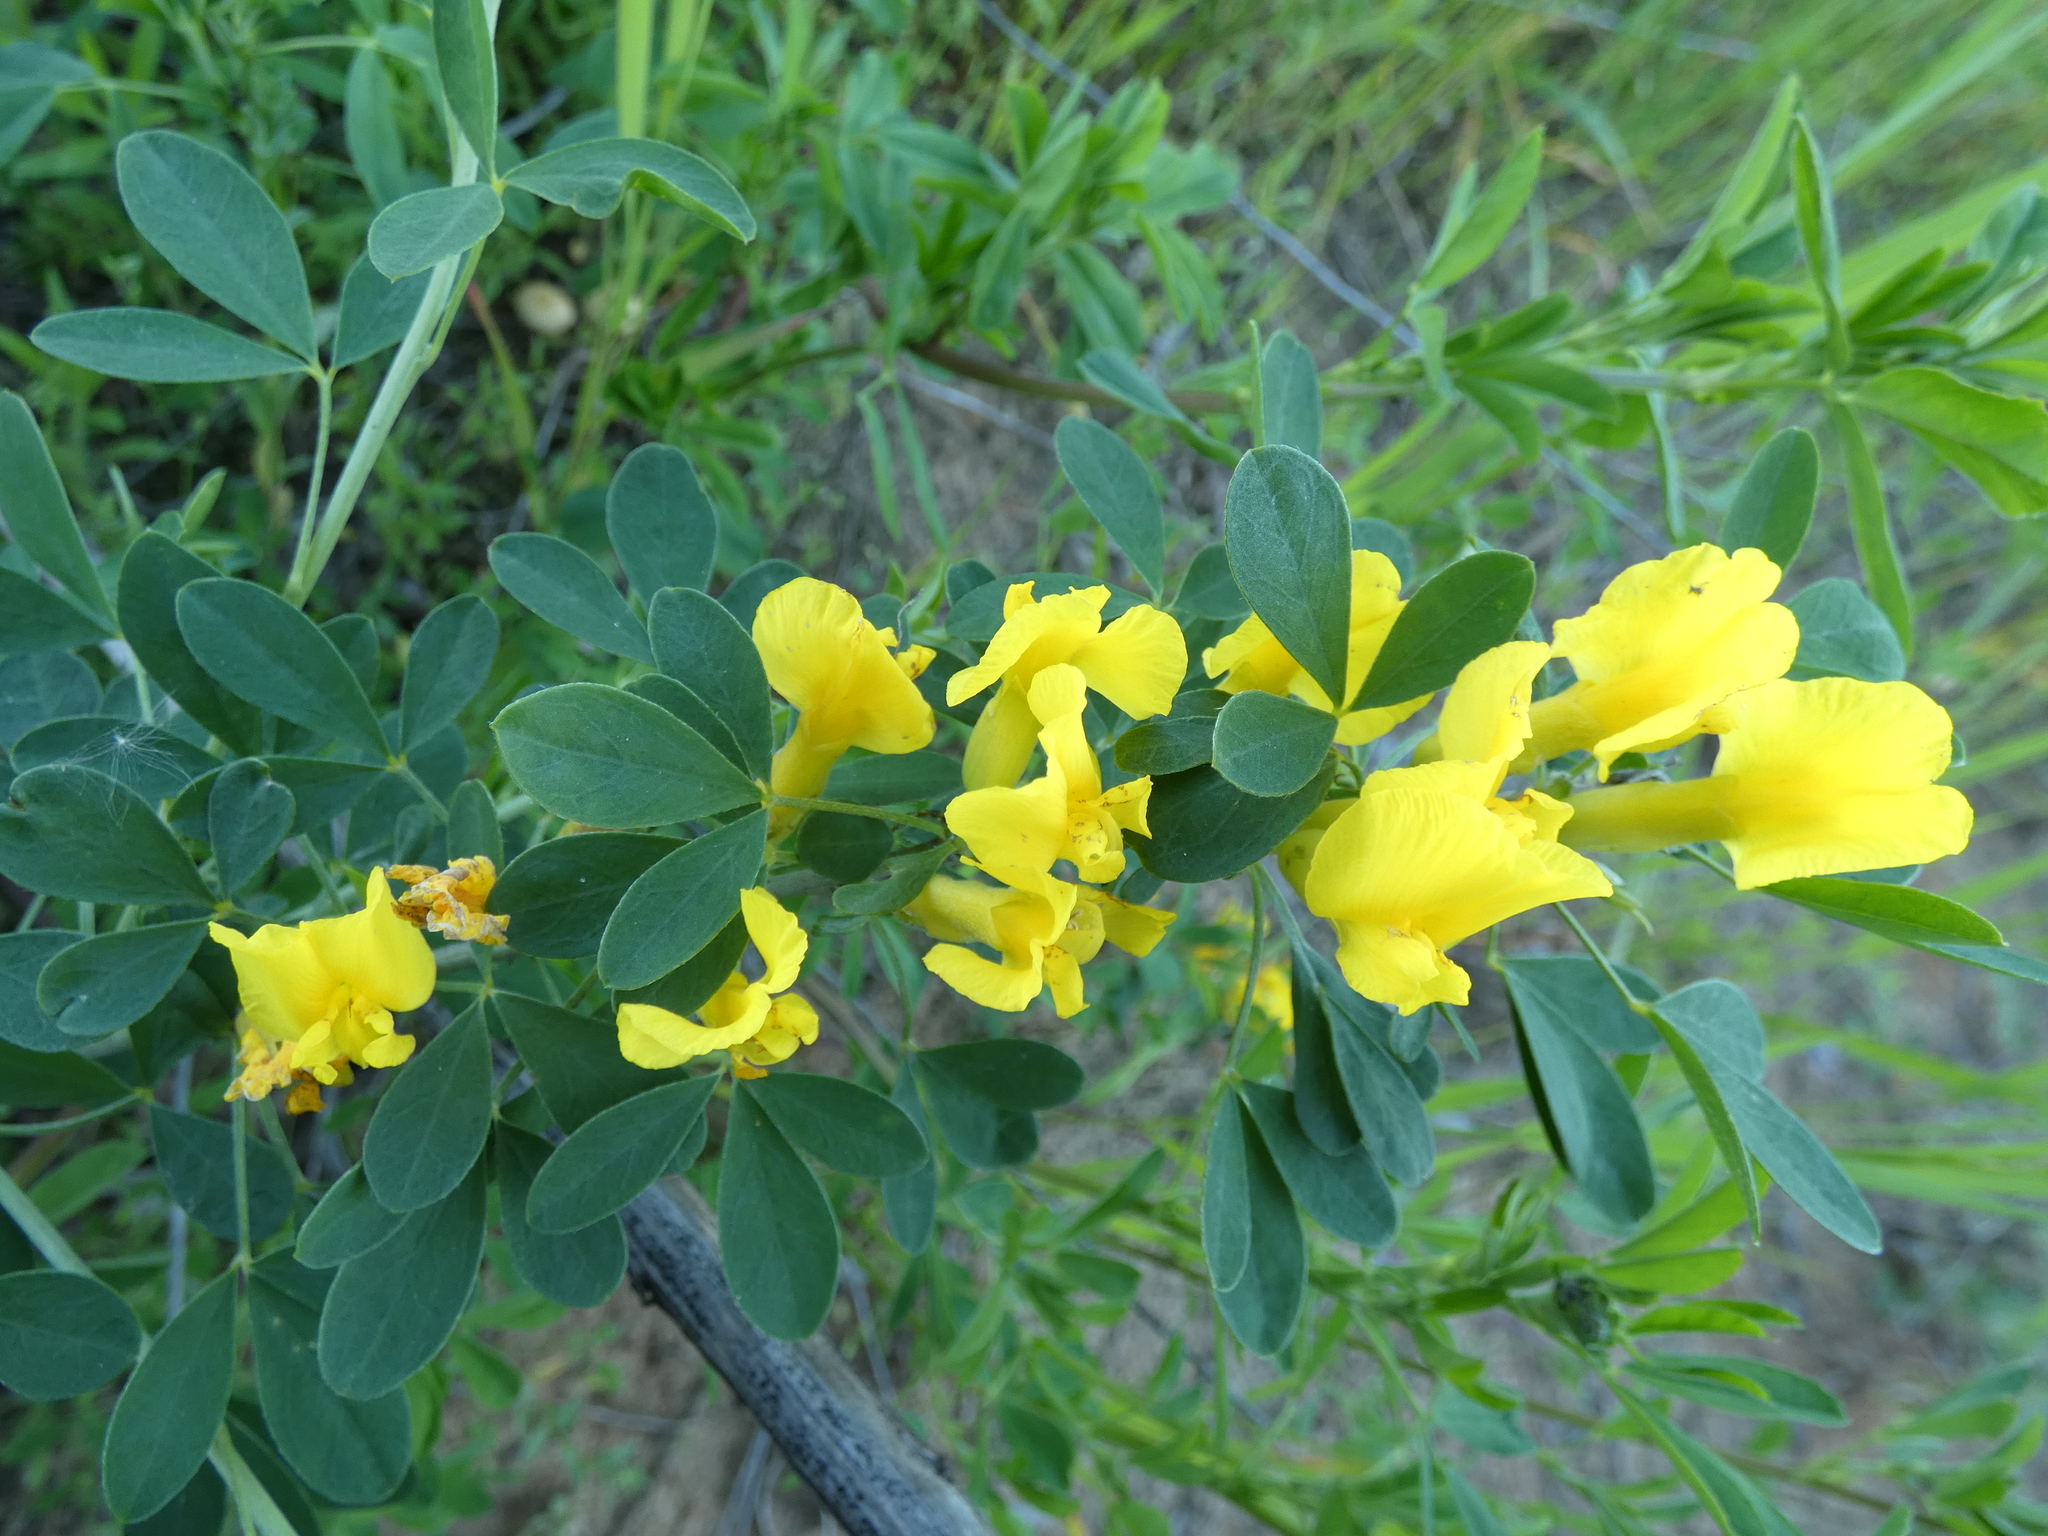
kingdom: Plantae
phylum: Tracheophyta
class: Magnoliopsida
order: Fabales
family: Fabaceae
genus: Chamaecytisus
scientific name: Chamaecytisus ruthenicus
